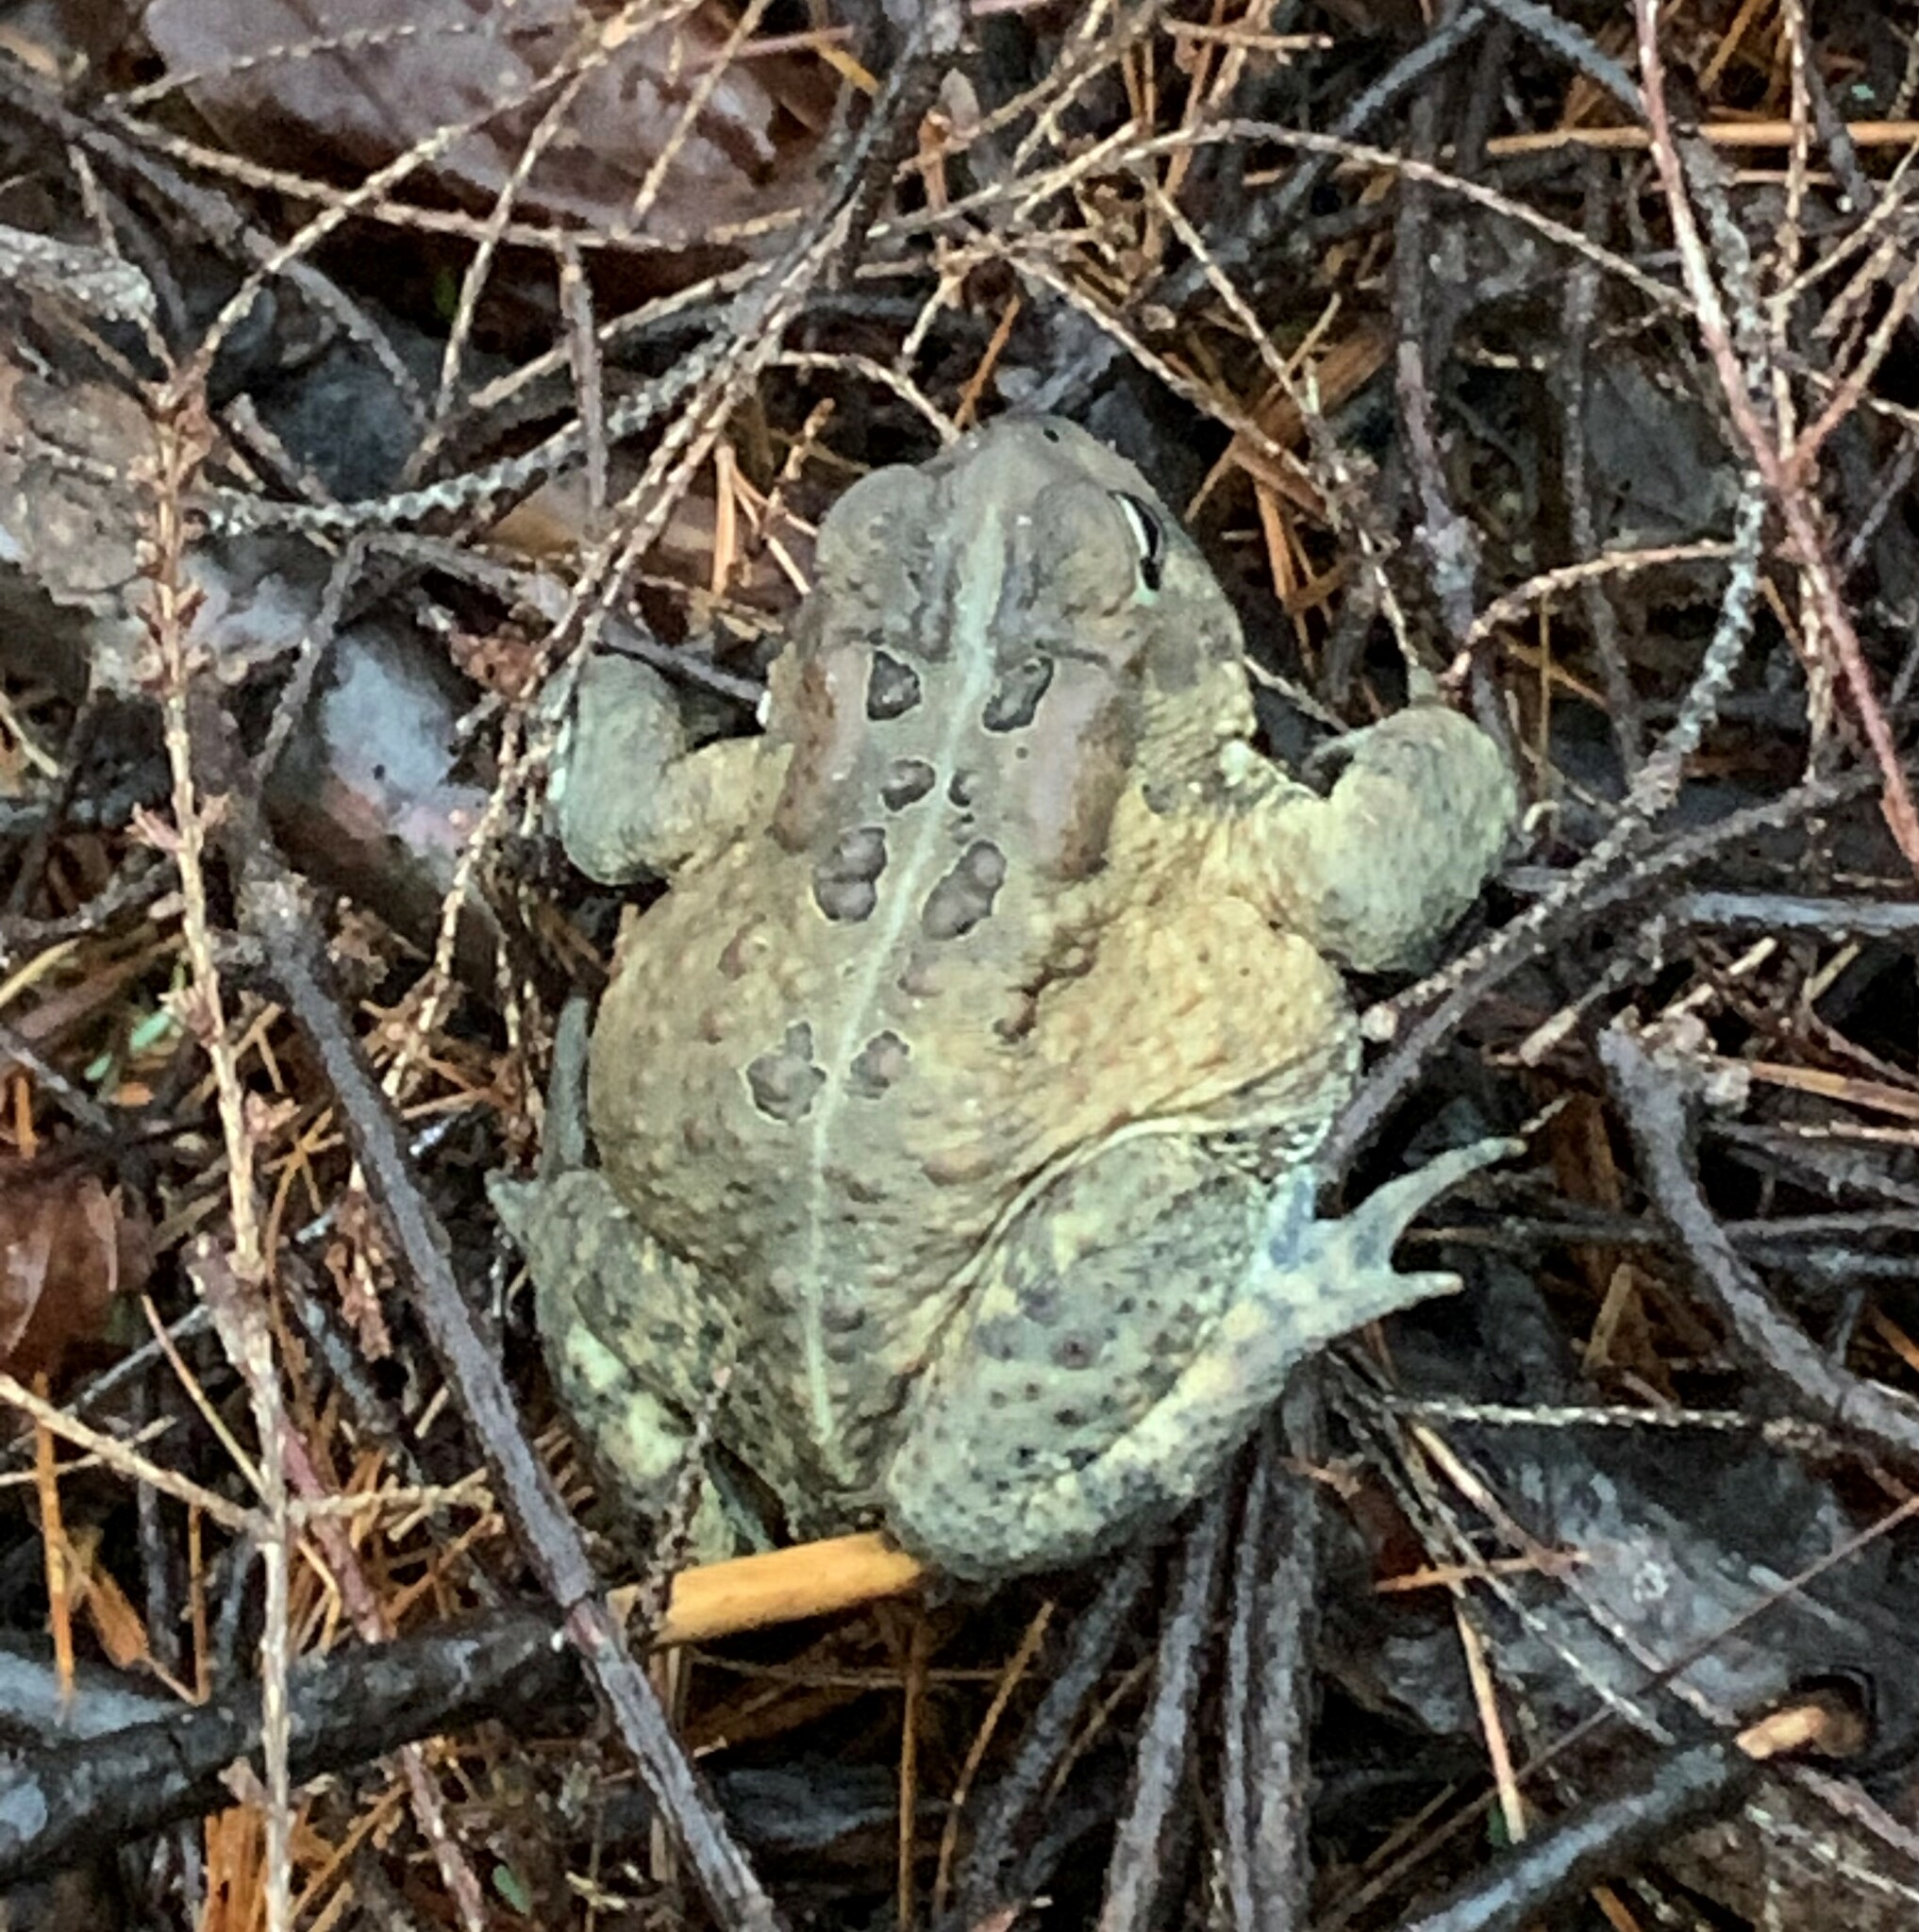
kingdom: Animalia
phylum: Chordata
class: Amphibia
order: Anura
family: Bufonidae
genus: Anaxyrus
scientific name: Anaxyrus americanus
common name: American toad
